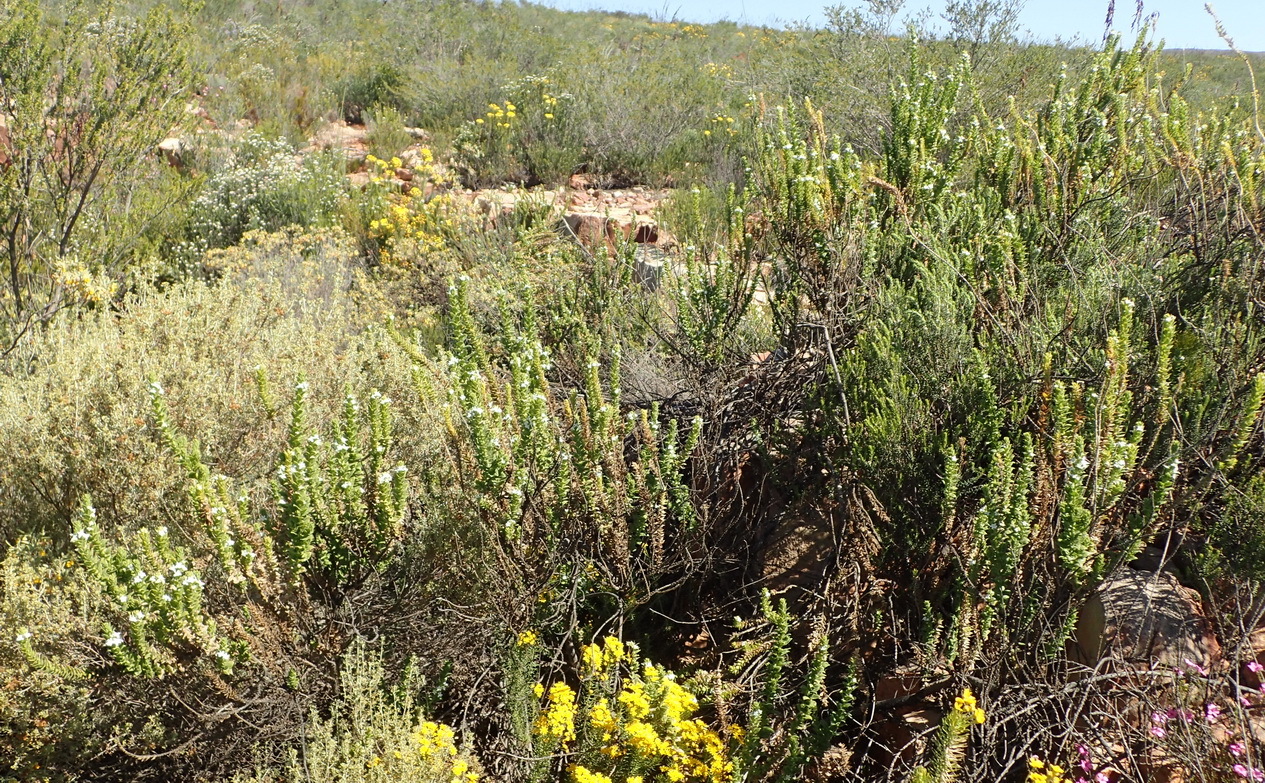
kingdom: Plantae
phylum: Tracheophyta
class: Magnoliopsida
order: Lamiales
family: Scrophulariaceae
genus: Oftia
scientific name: Oftia africana
